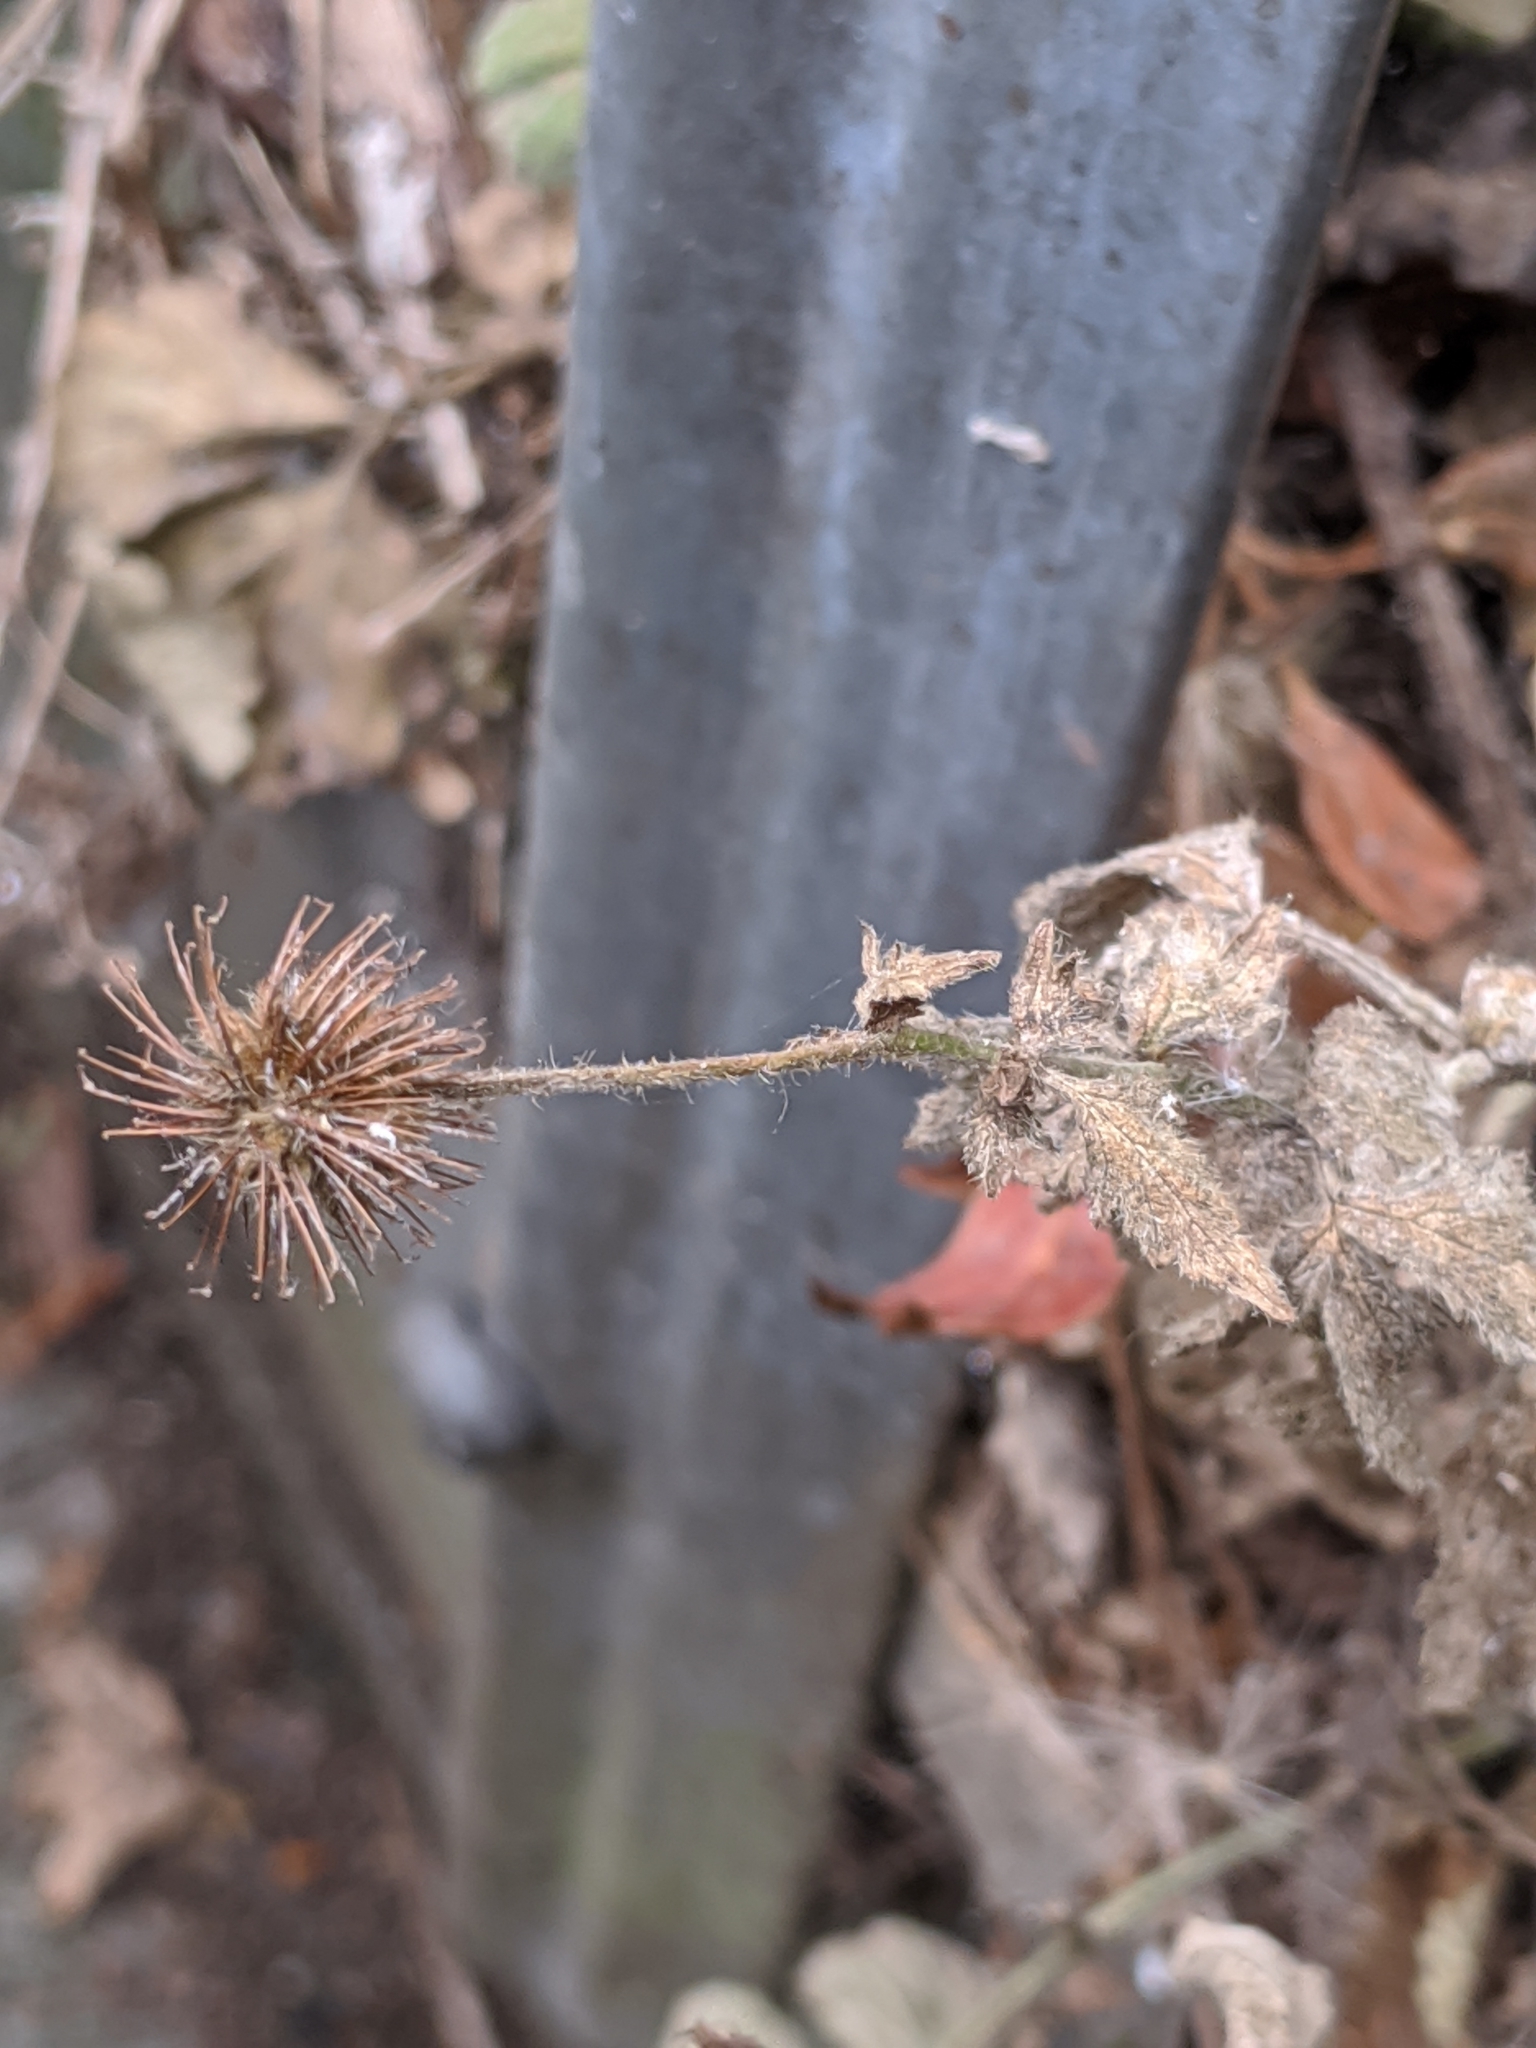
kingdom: Plantae
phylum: Tracheophyta
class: Magnoliopsida
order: Rosales
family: Rosaceae
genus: Geum
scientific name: Geum urbanum
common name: Wood avens
